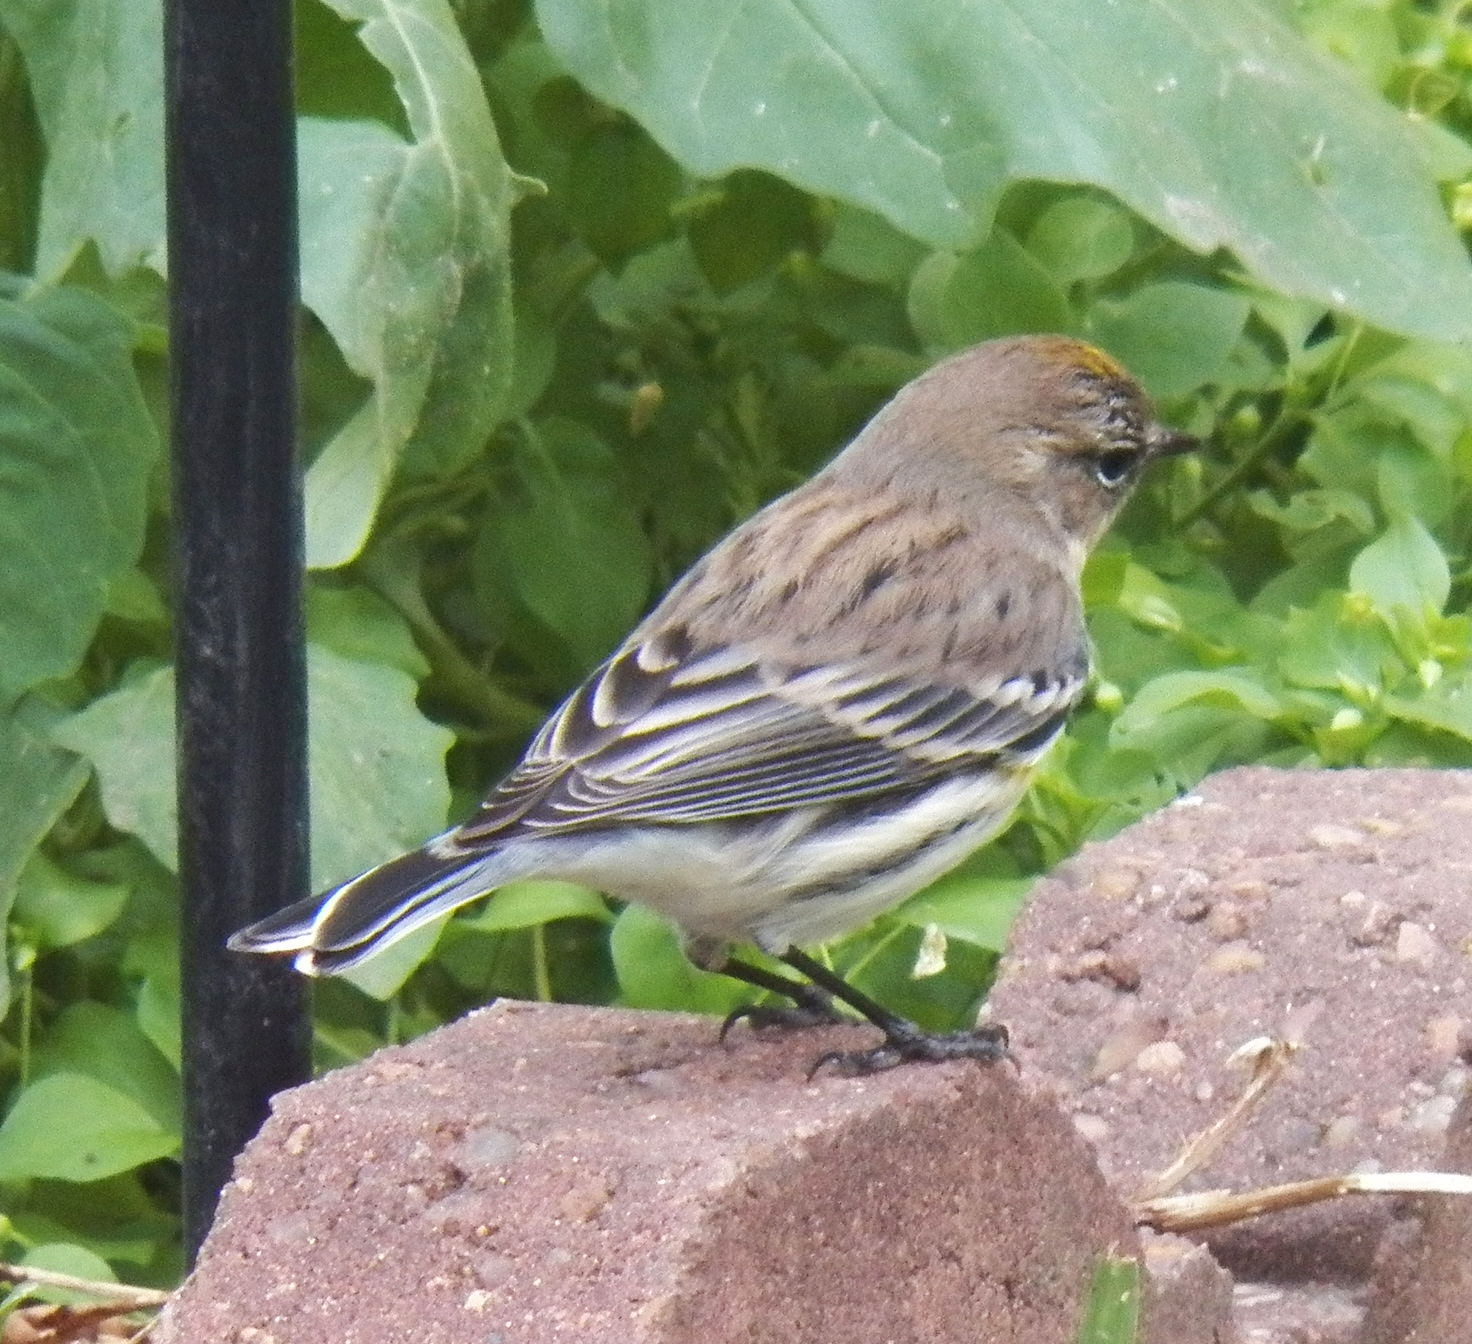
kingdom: Animalia
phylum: Chordata
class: Aves
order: Passeriformes
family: Parulidae
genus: Setophaga
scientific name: Setophaga coronata
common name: Myrtle warbler
